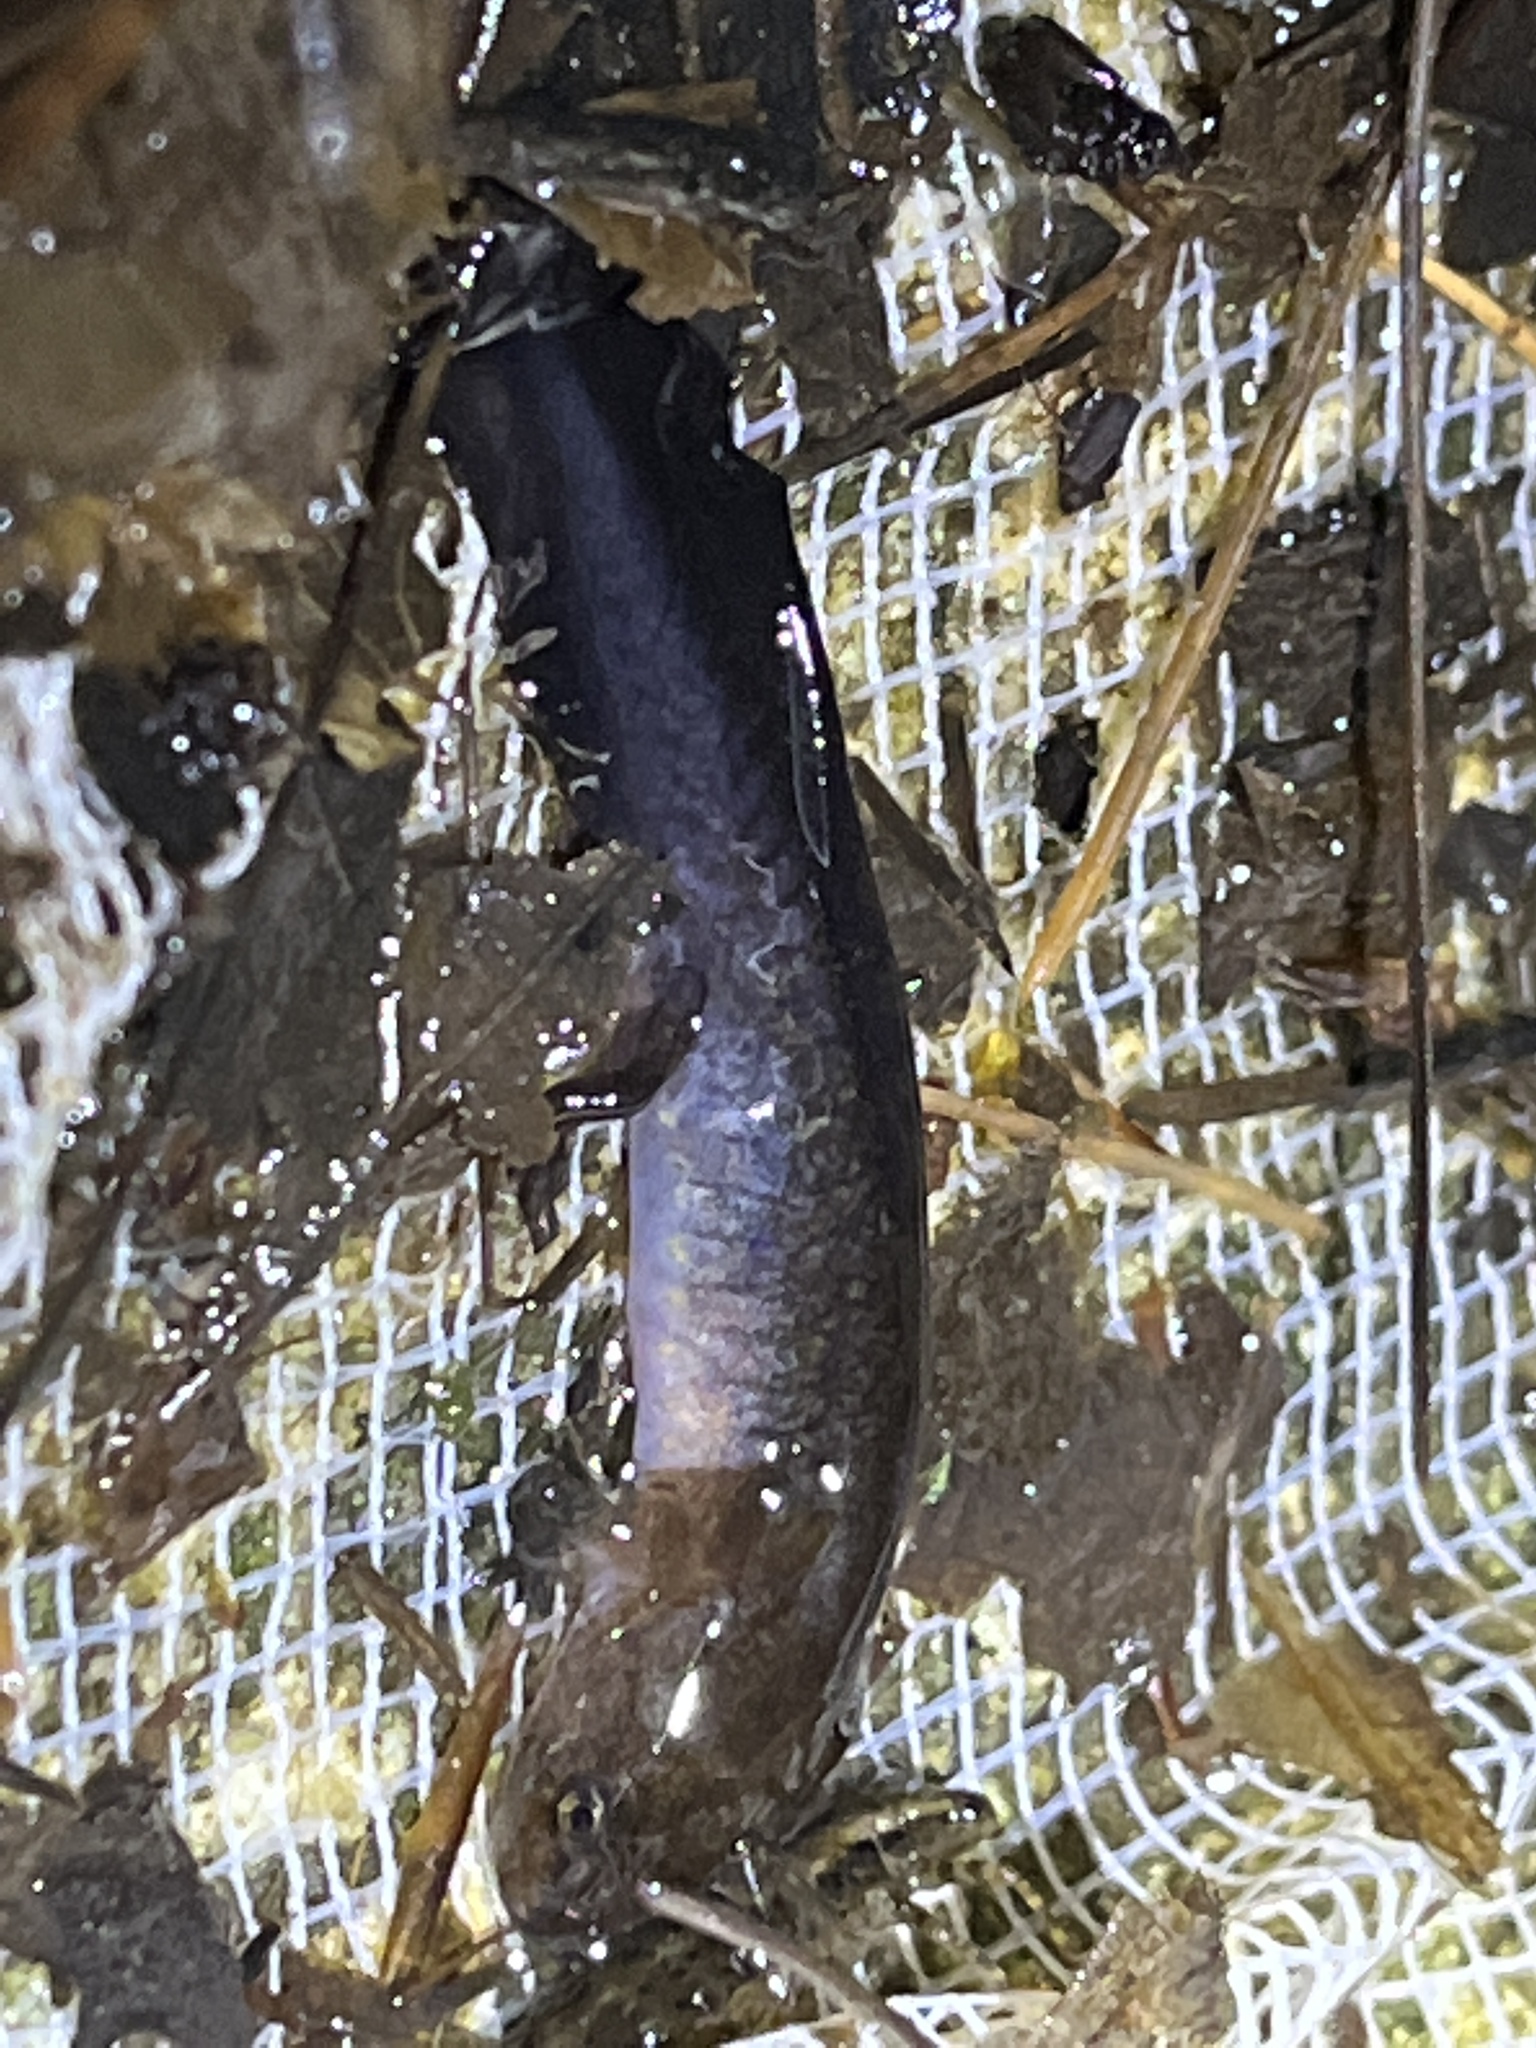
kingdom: Animalia
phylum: Chordata
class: Amphibia
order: Caudata
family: Ambystomatidae
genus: Ambystoma
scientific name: Ambystoma maculatum
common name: Spotted salamander
